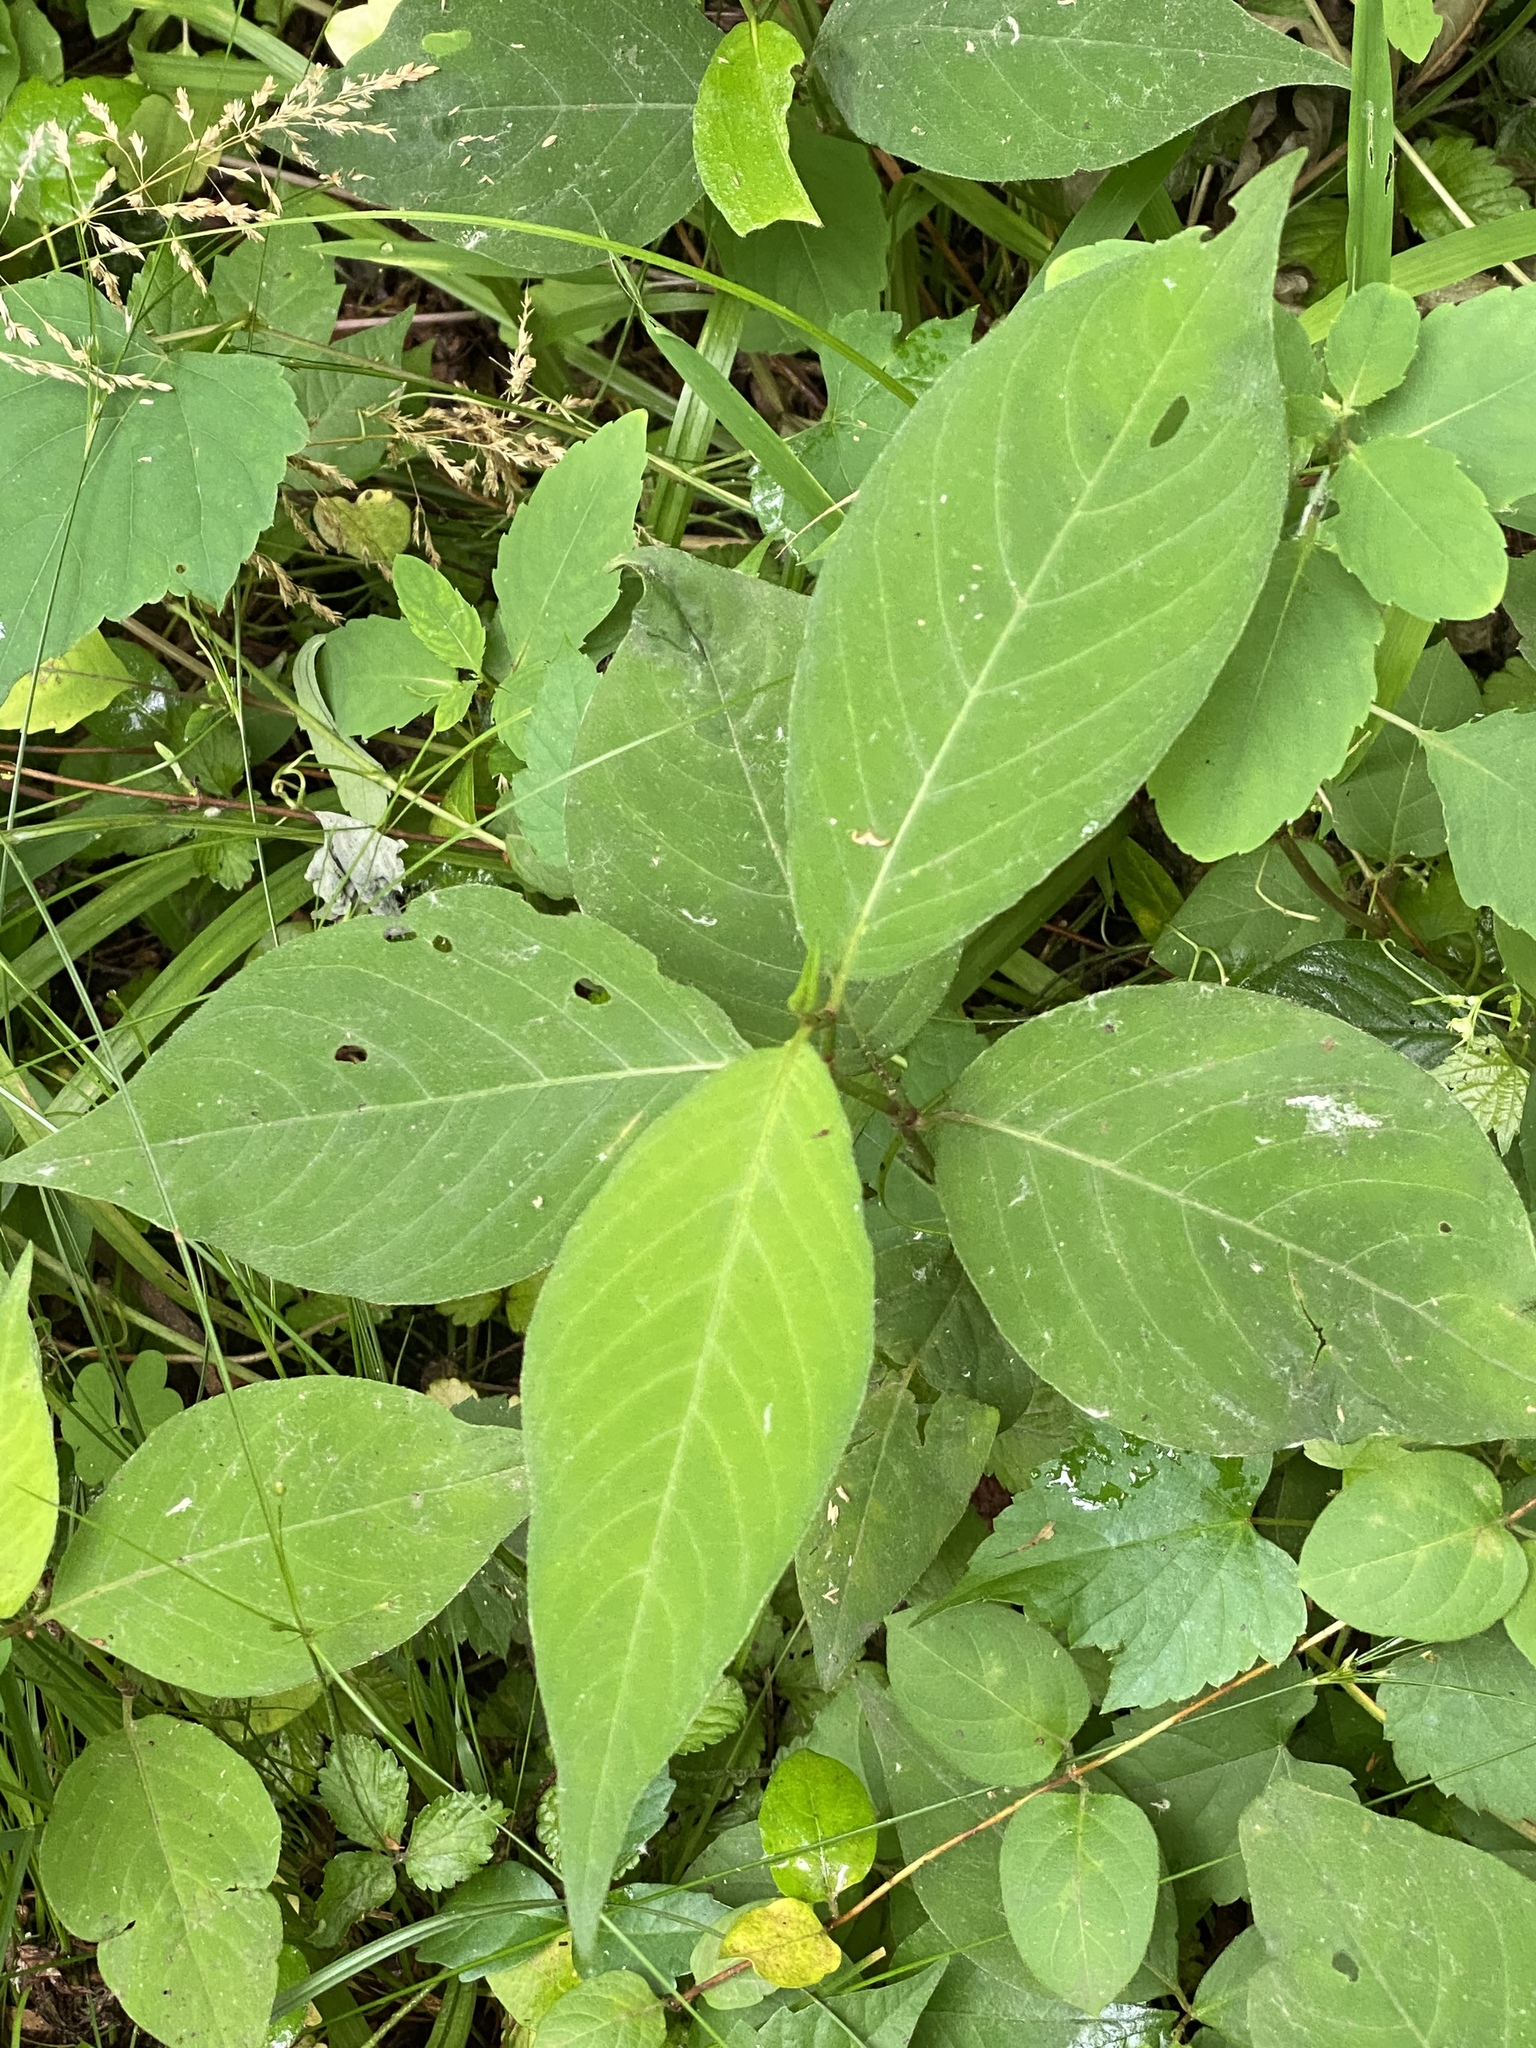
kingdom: Plantae
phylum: Tracheophyta
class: Magnoliopsida
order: Caryophyllales
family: Polygonaceae
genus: Persicaria
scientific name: Persicaria virginiana
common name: Jumpseed
